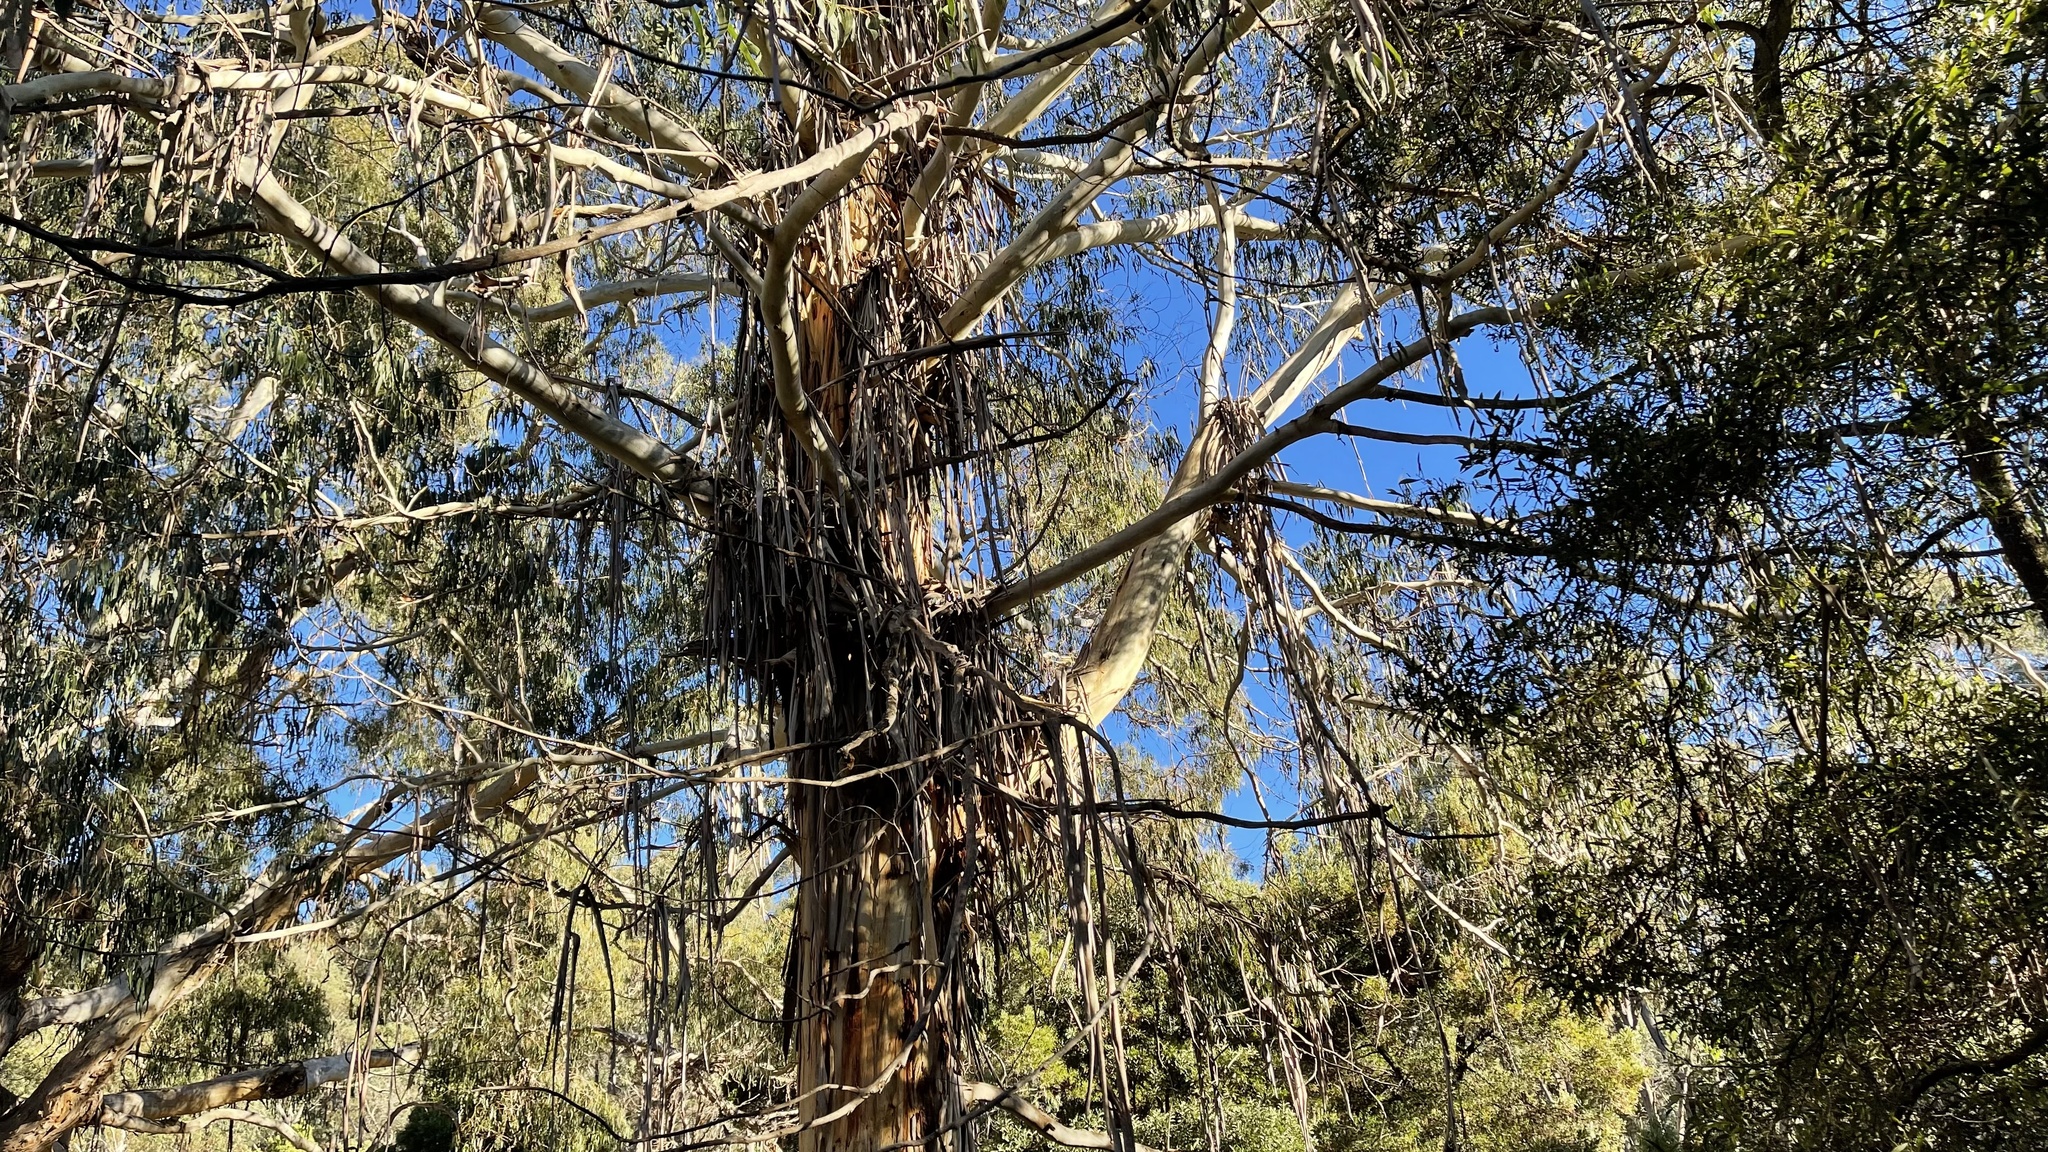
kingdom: Plantae
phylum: Tracheophyta
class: Magnoliopsida
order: Myrtales
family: Myrtaceae
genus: Eucalyptus
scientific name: Eucalyptus viminalis
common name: Manna gum
